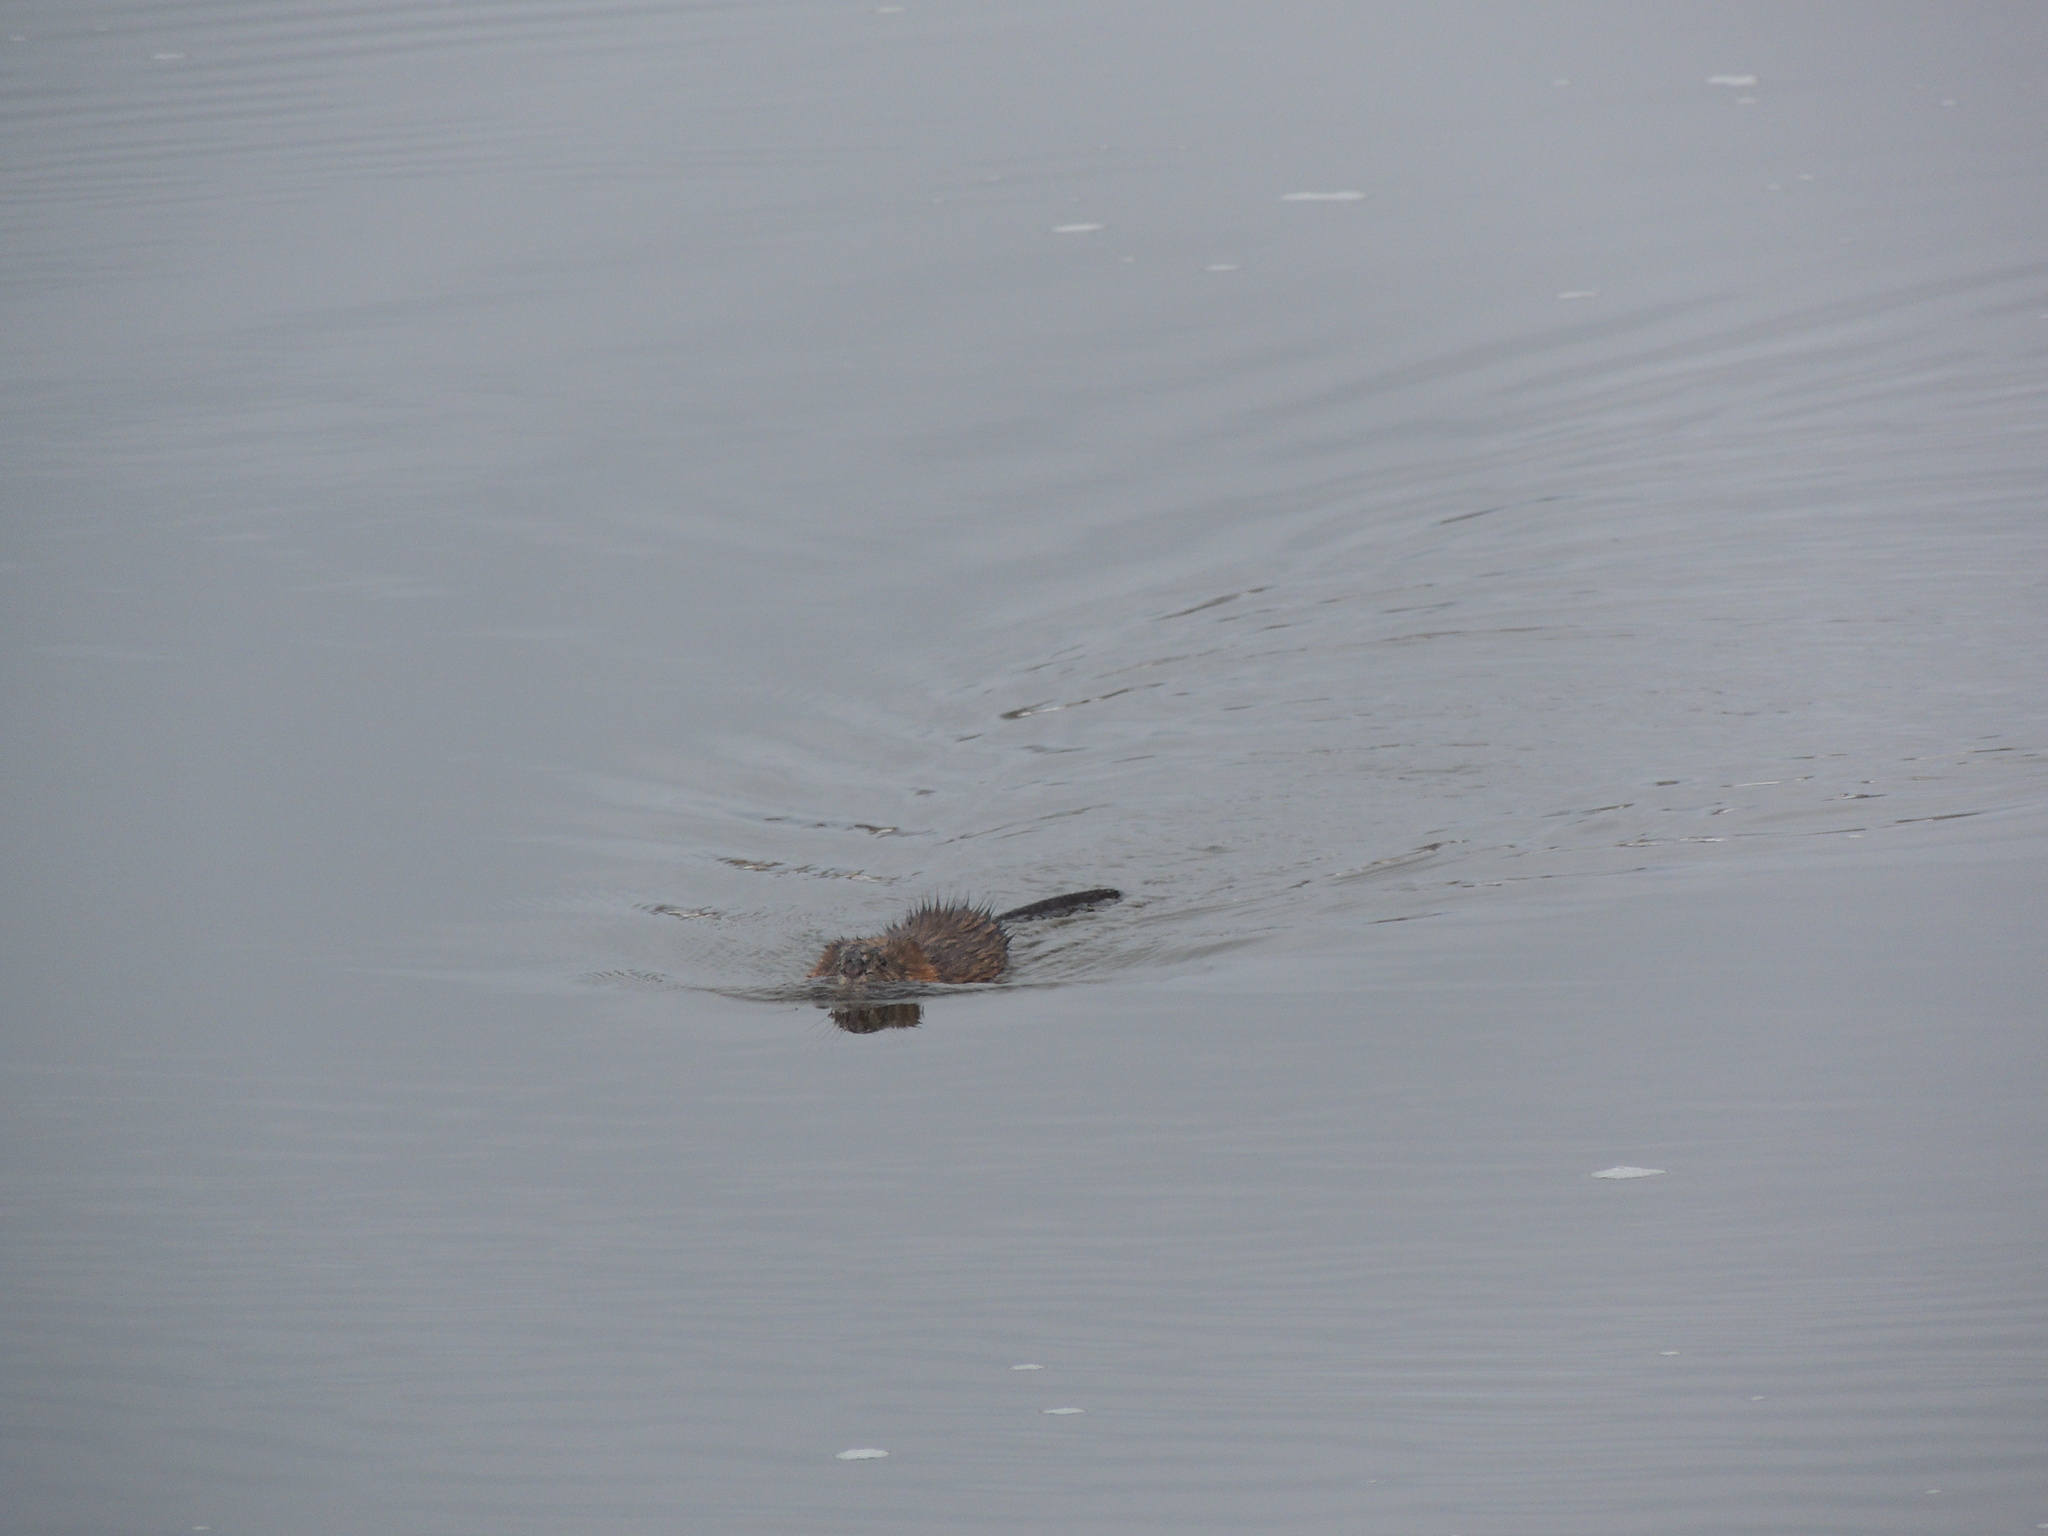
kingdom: Animalia
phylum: Chordata
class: Mammalia
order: Rodentia
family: Cricetidae
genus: Ondatra
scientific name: Ondatra zibethicus
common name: Muskrat
